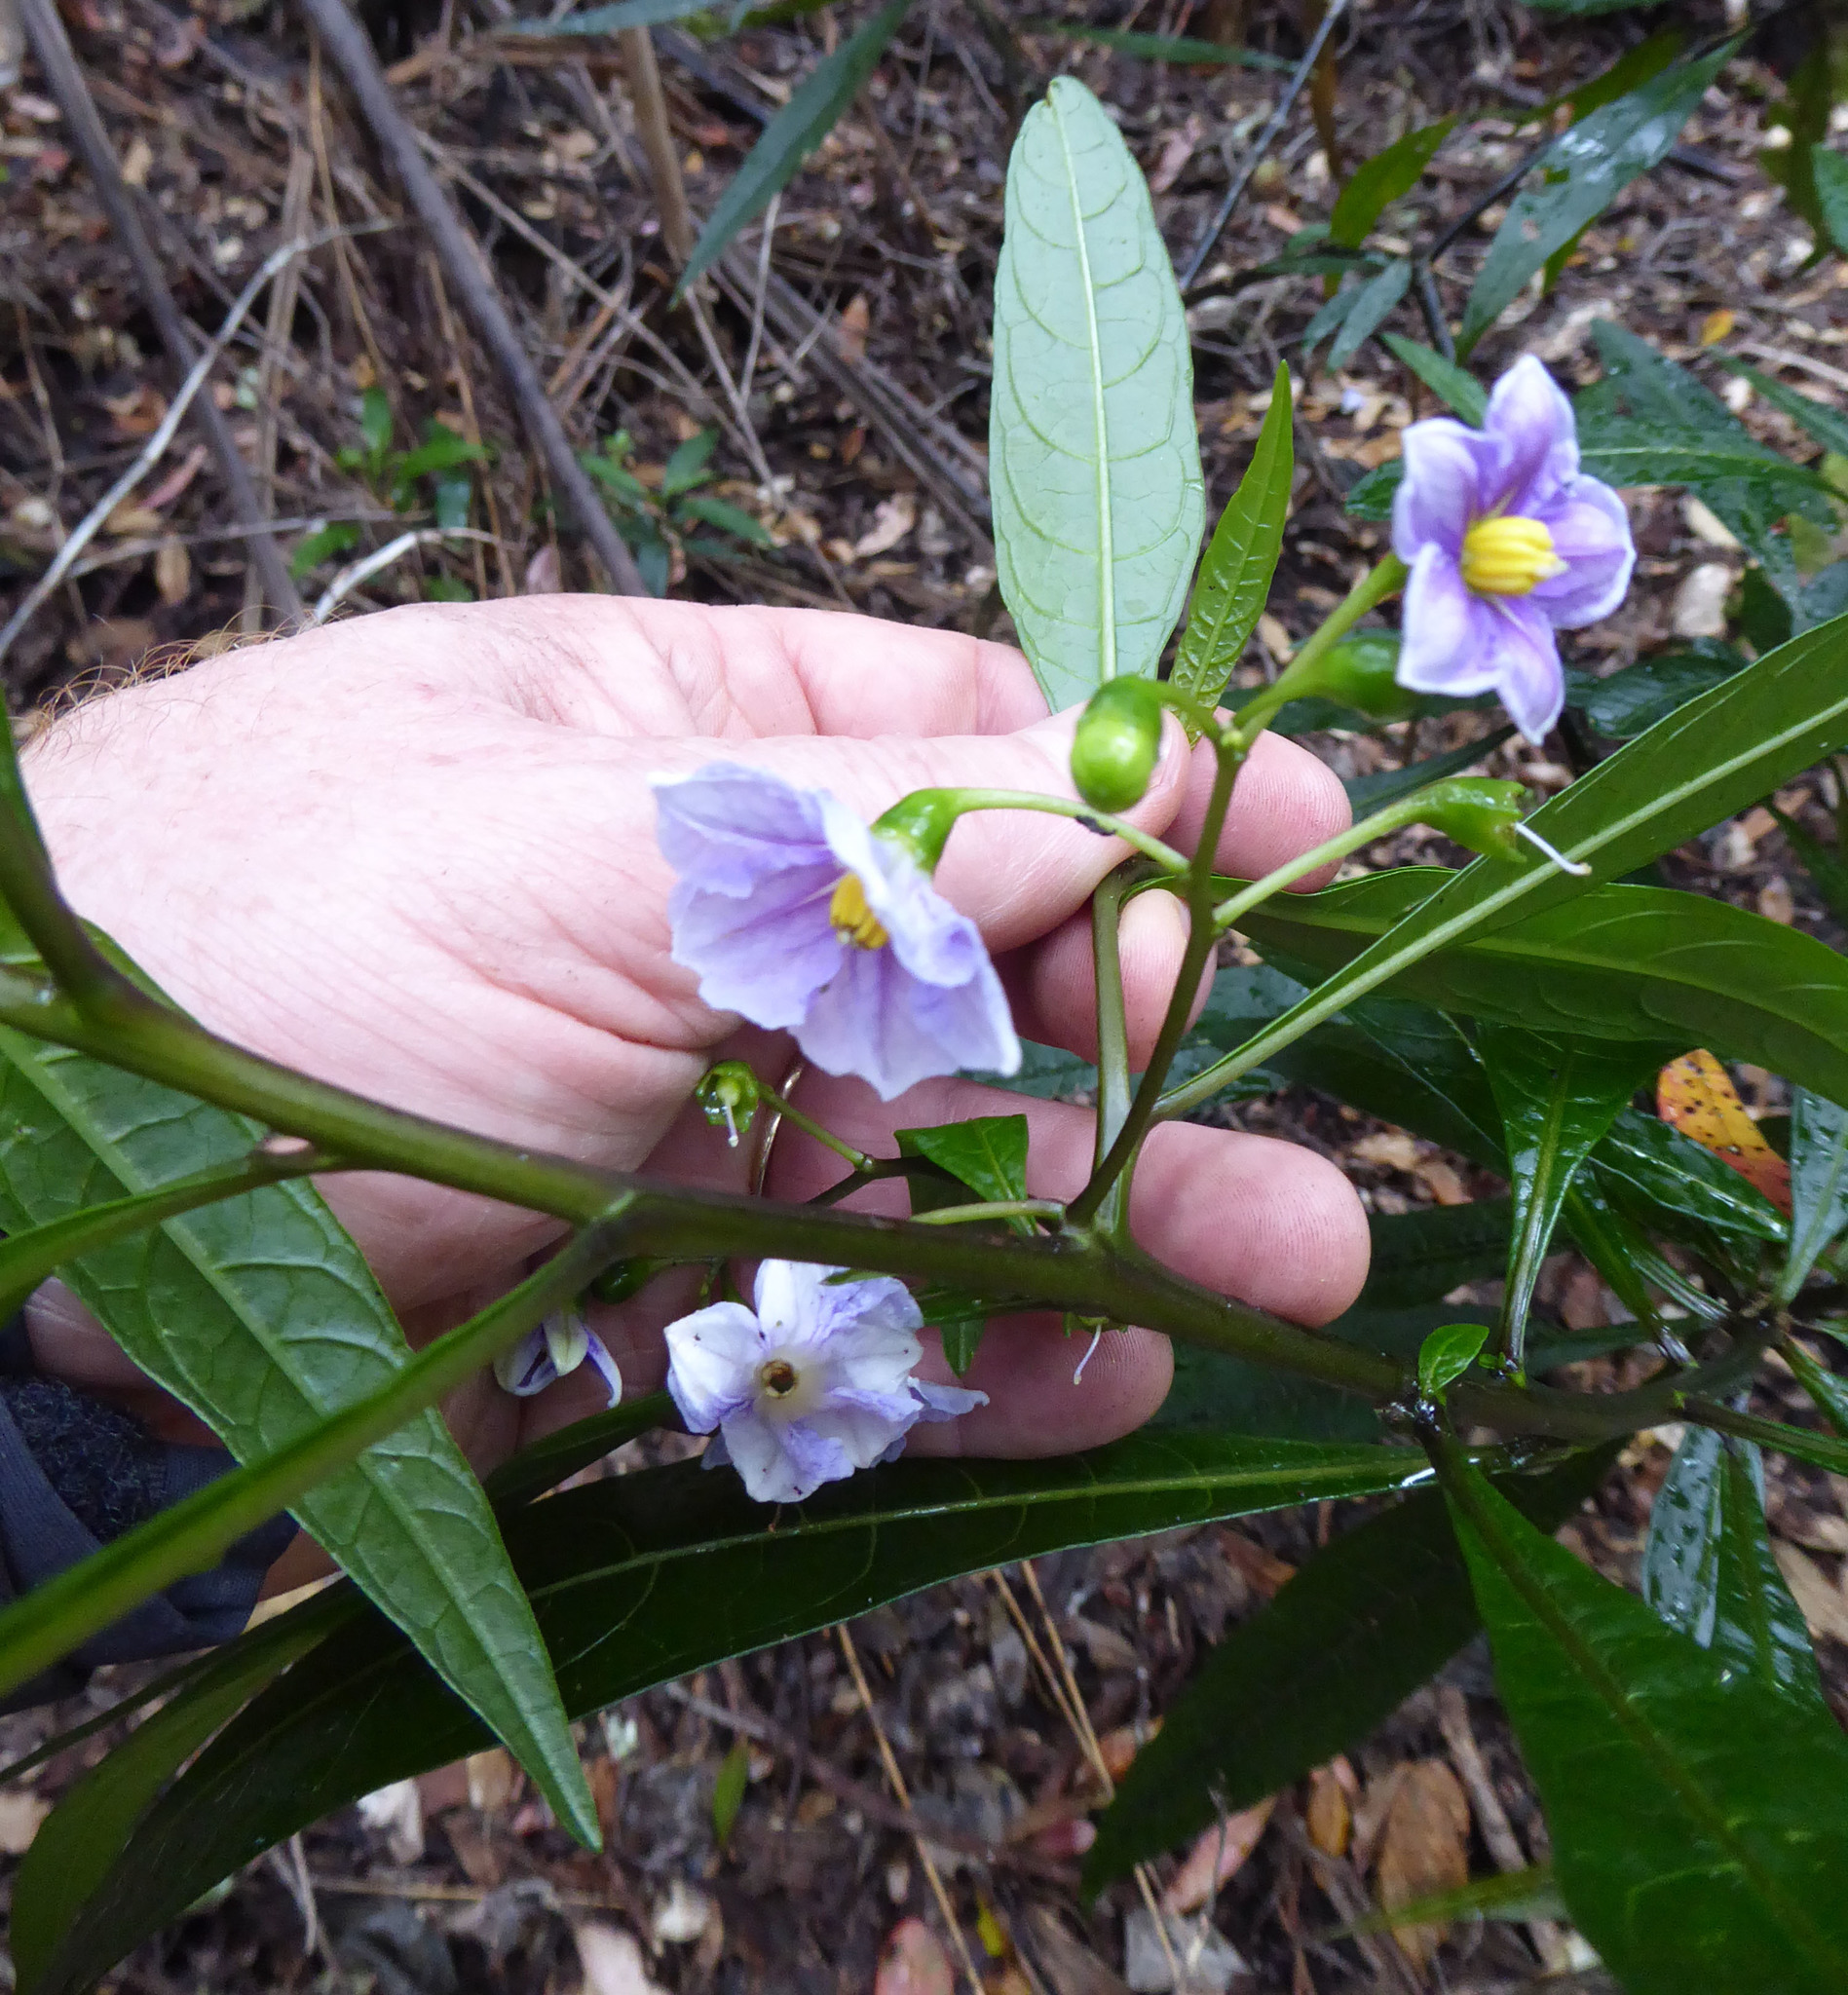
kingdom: Plantae
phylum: Tracheophyta
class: Magnoliopsida
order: Solanales
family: Solanaceae
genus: Solanum
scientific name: Solanum aviculare
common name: New zealand nightshade
